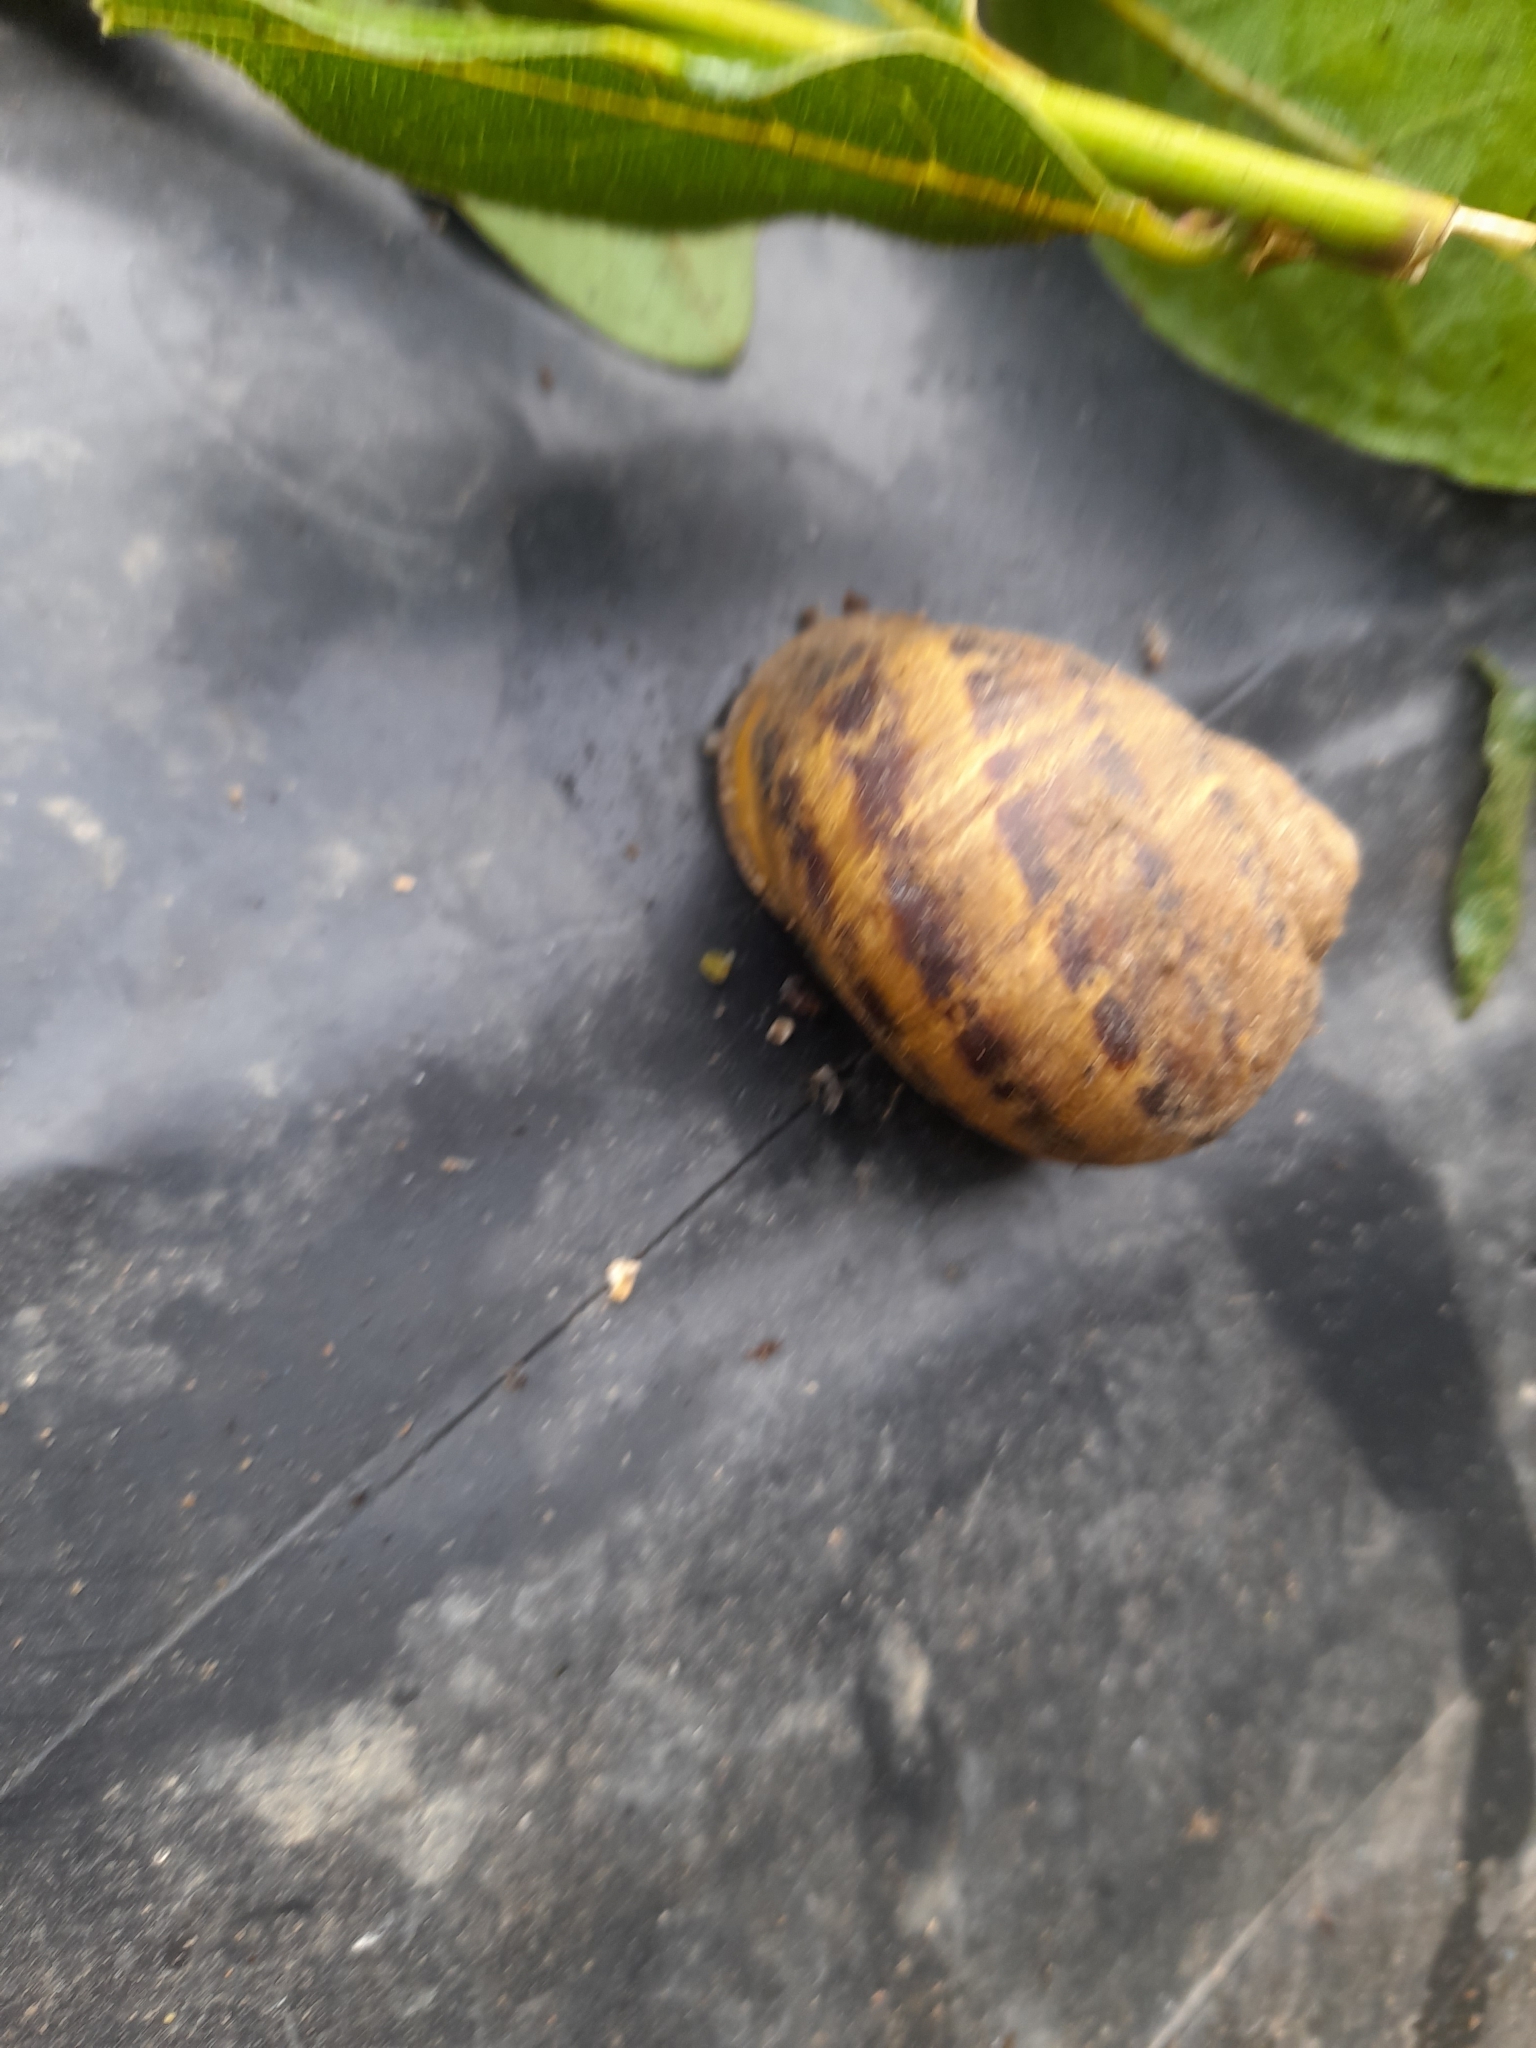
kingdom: Animalia
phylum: Mollusca
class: Gastropoda
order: Stylommatophora
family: Helicidae
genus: Cornu
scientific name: Cornu aspersum
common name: Brown garden snail
